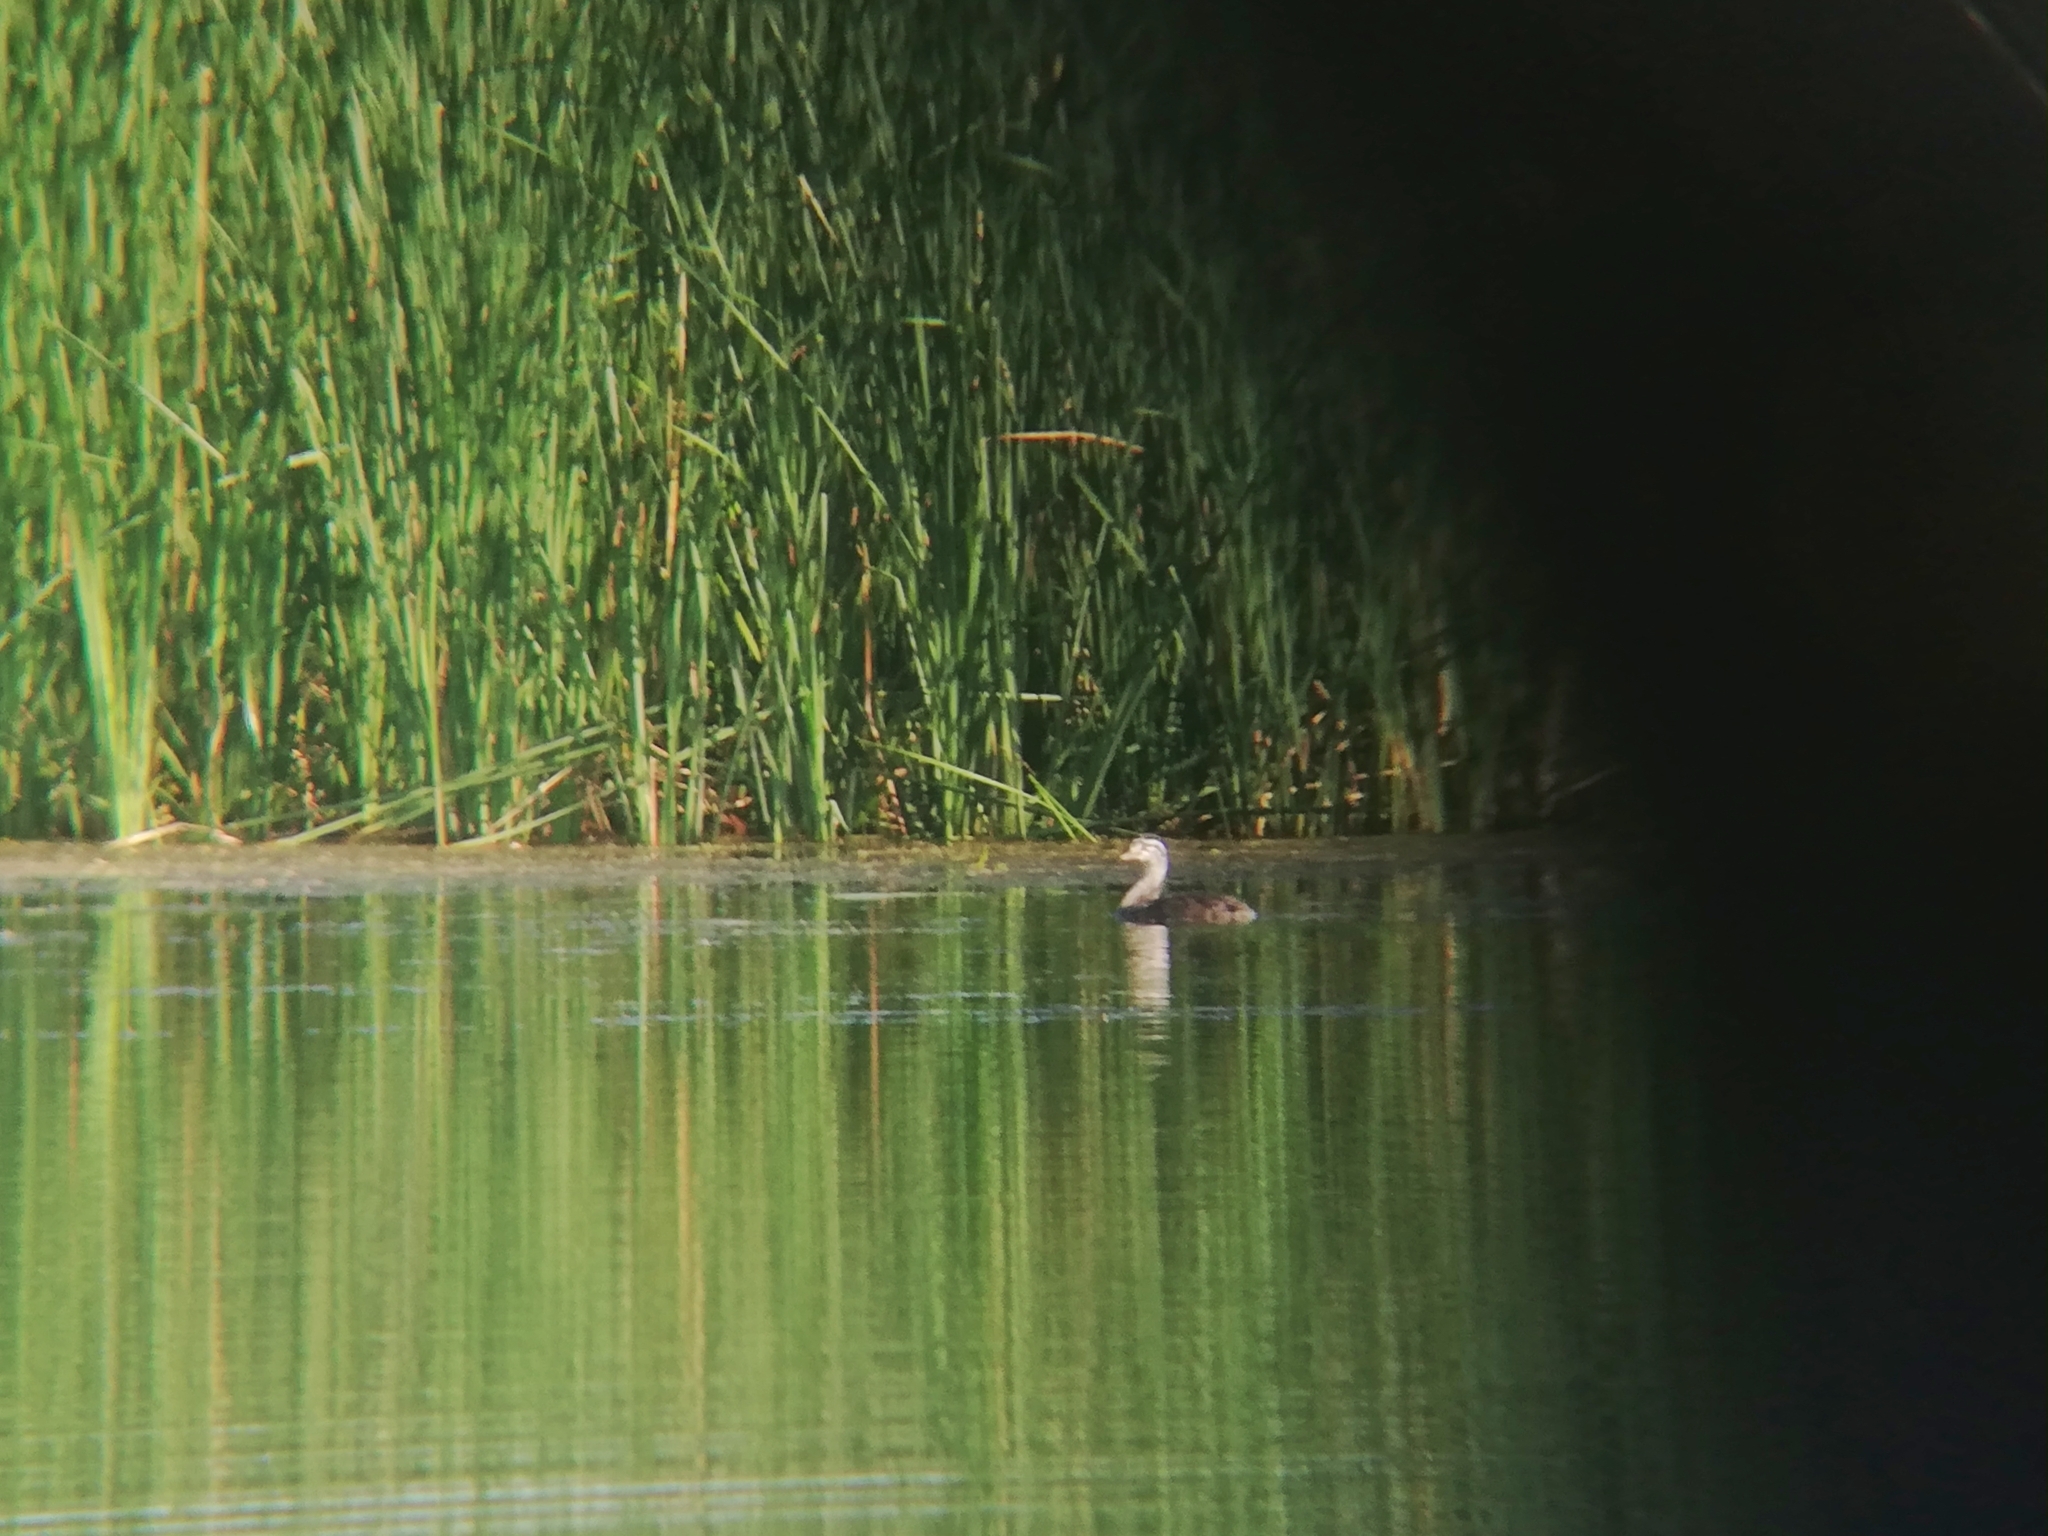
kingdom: Animalia
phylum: Chordata
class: Aves
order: Podicipediformes
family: Podicipedidae
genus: Podiceps
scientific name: Podiceps cristatus
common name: Great crested grebe
